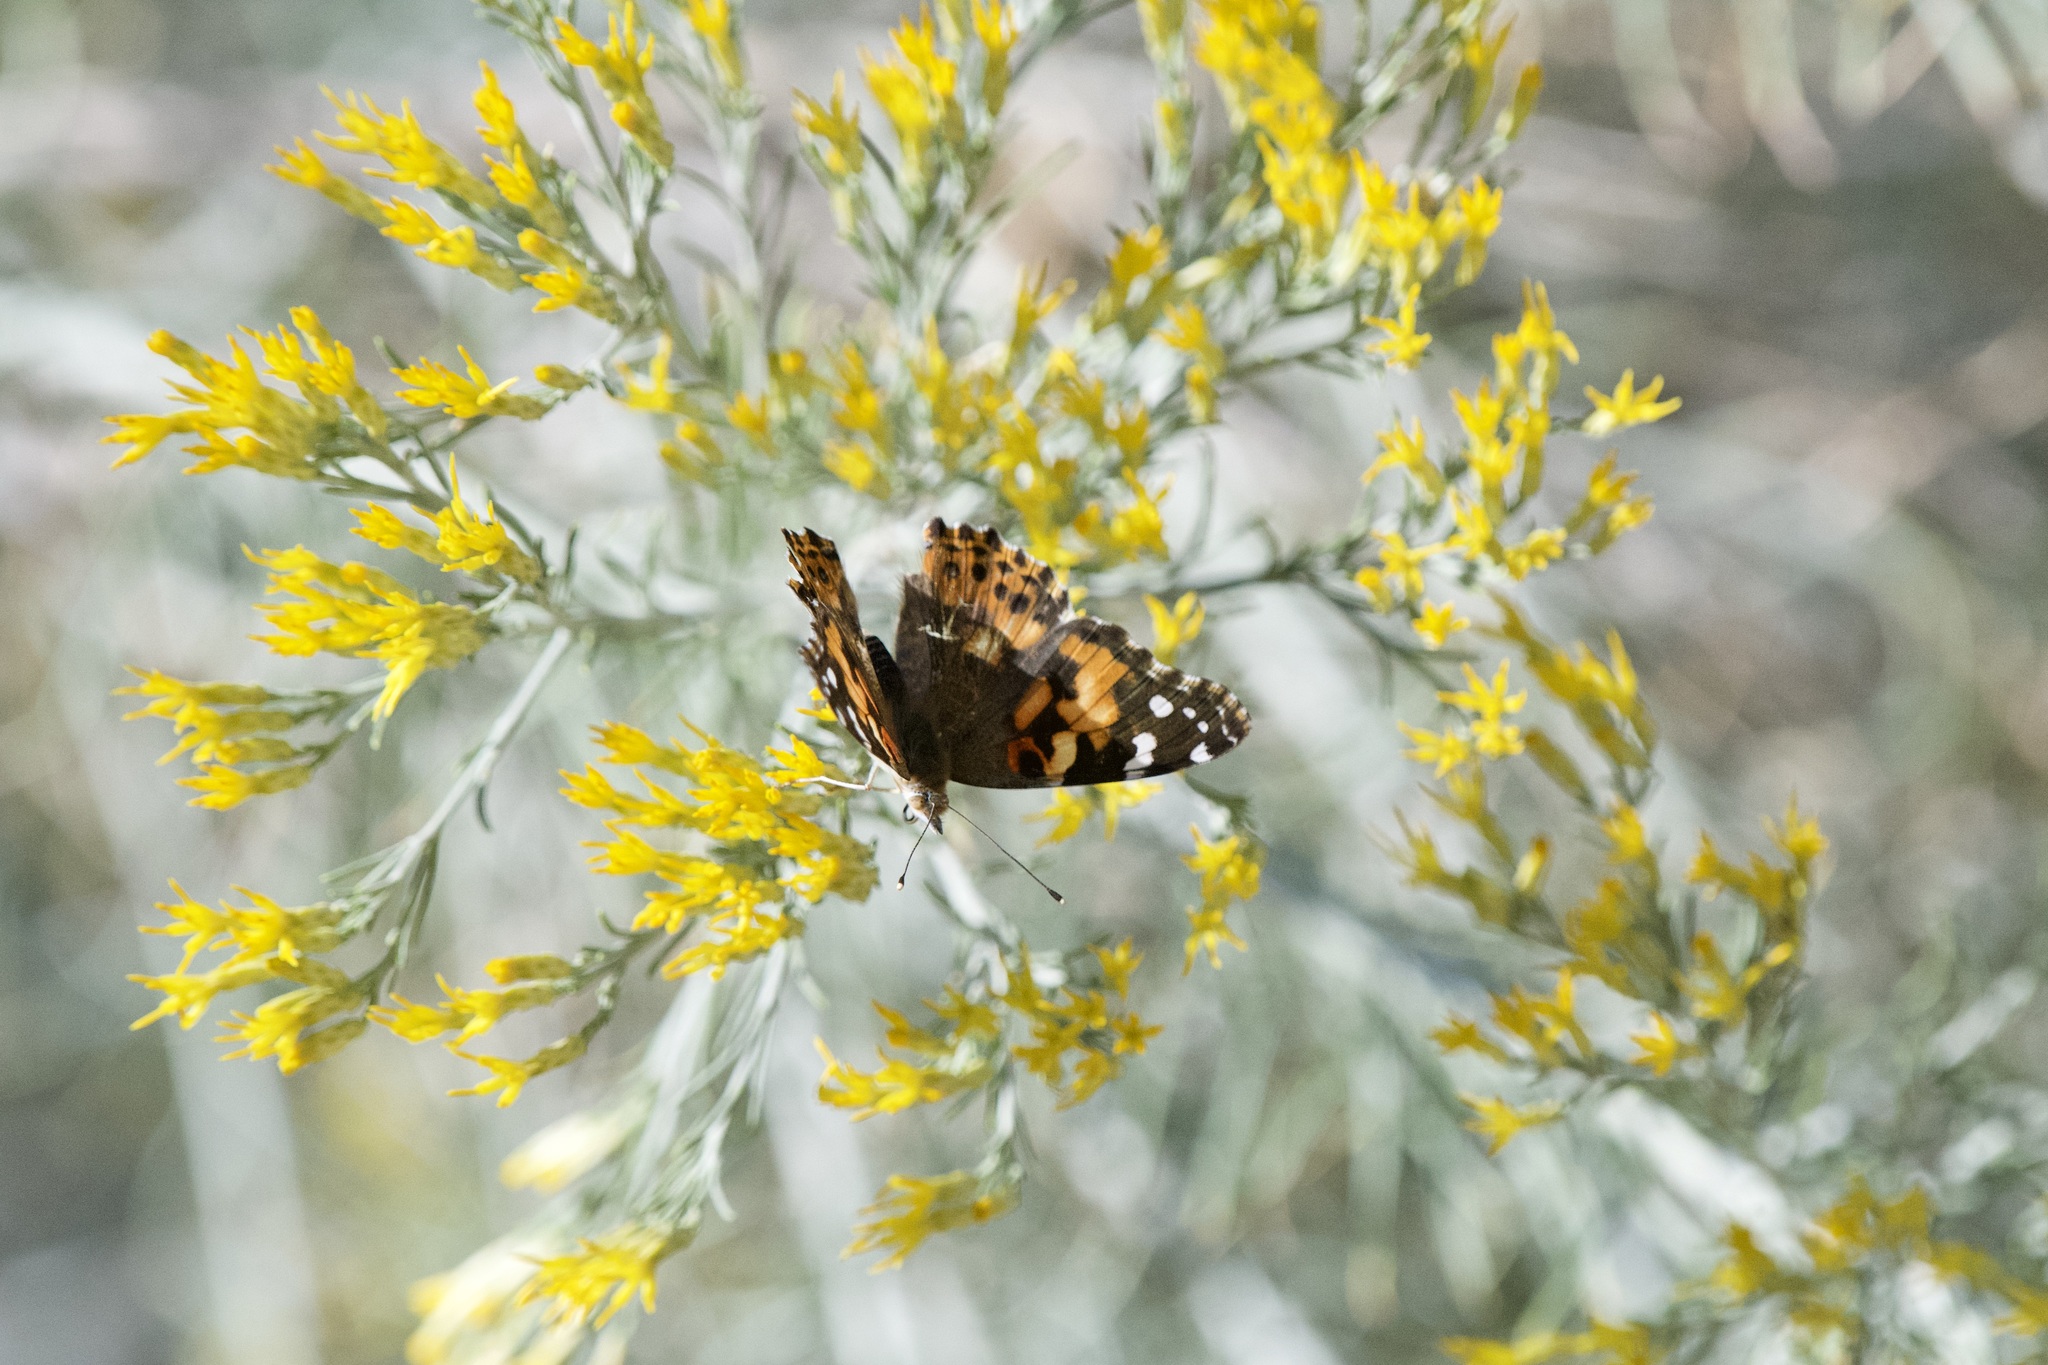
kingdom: Animalia
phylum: Arthropoda
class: Insecta
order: Lepidoptera
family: Nymphalidae
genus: Vanessa
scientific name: Vanessa cardui
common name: Painted lady
